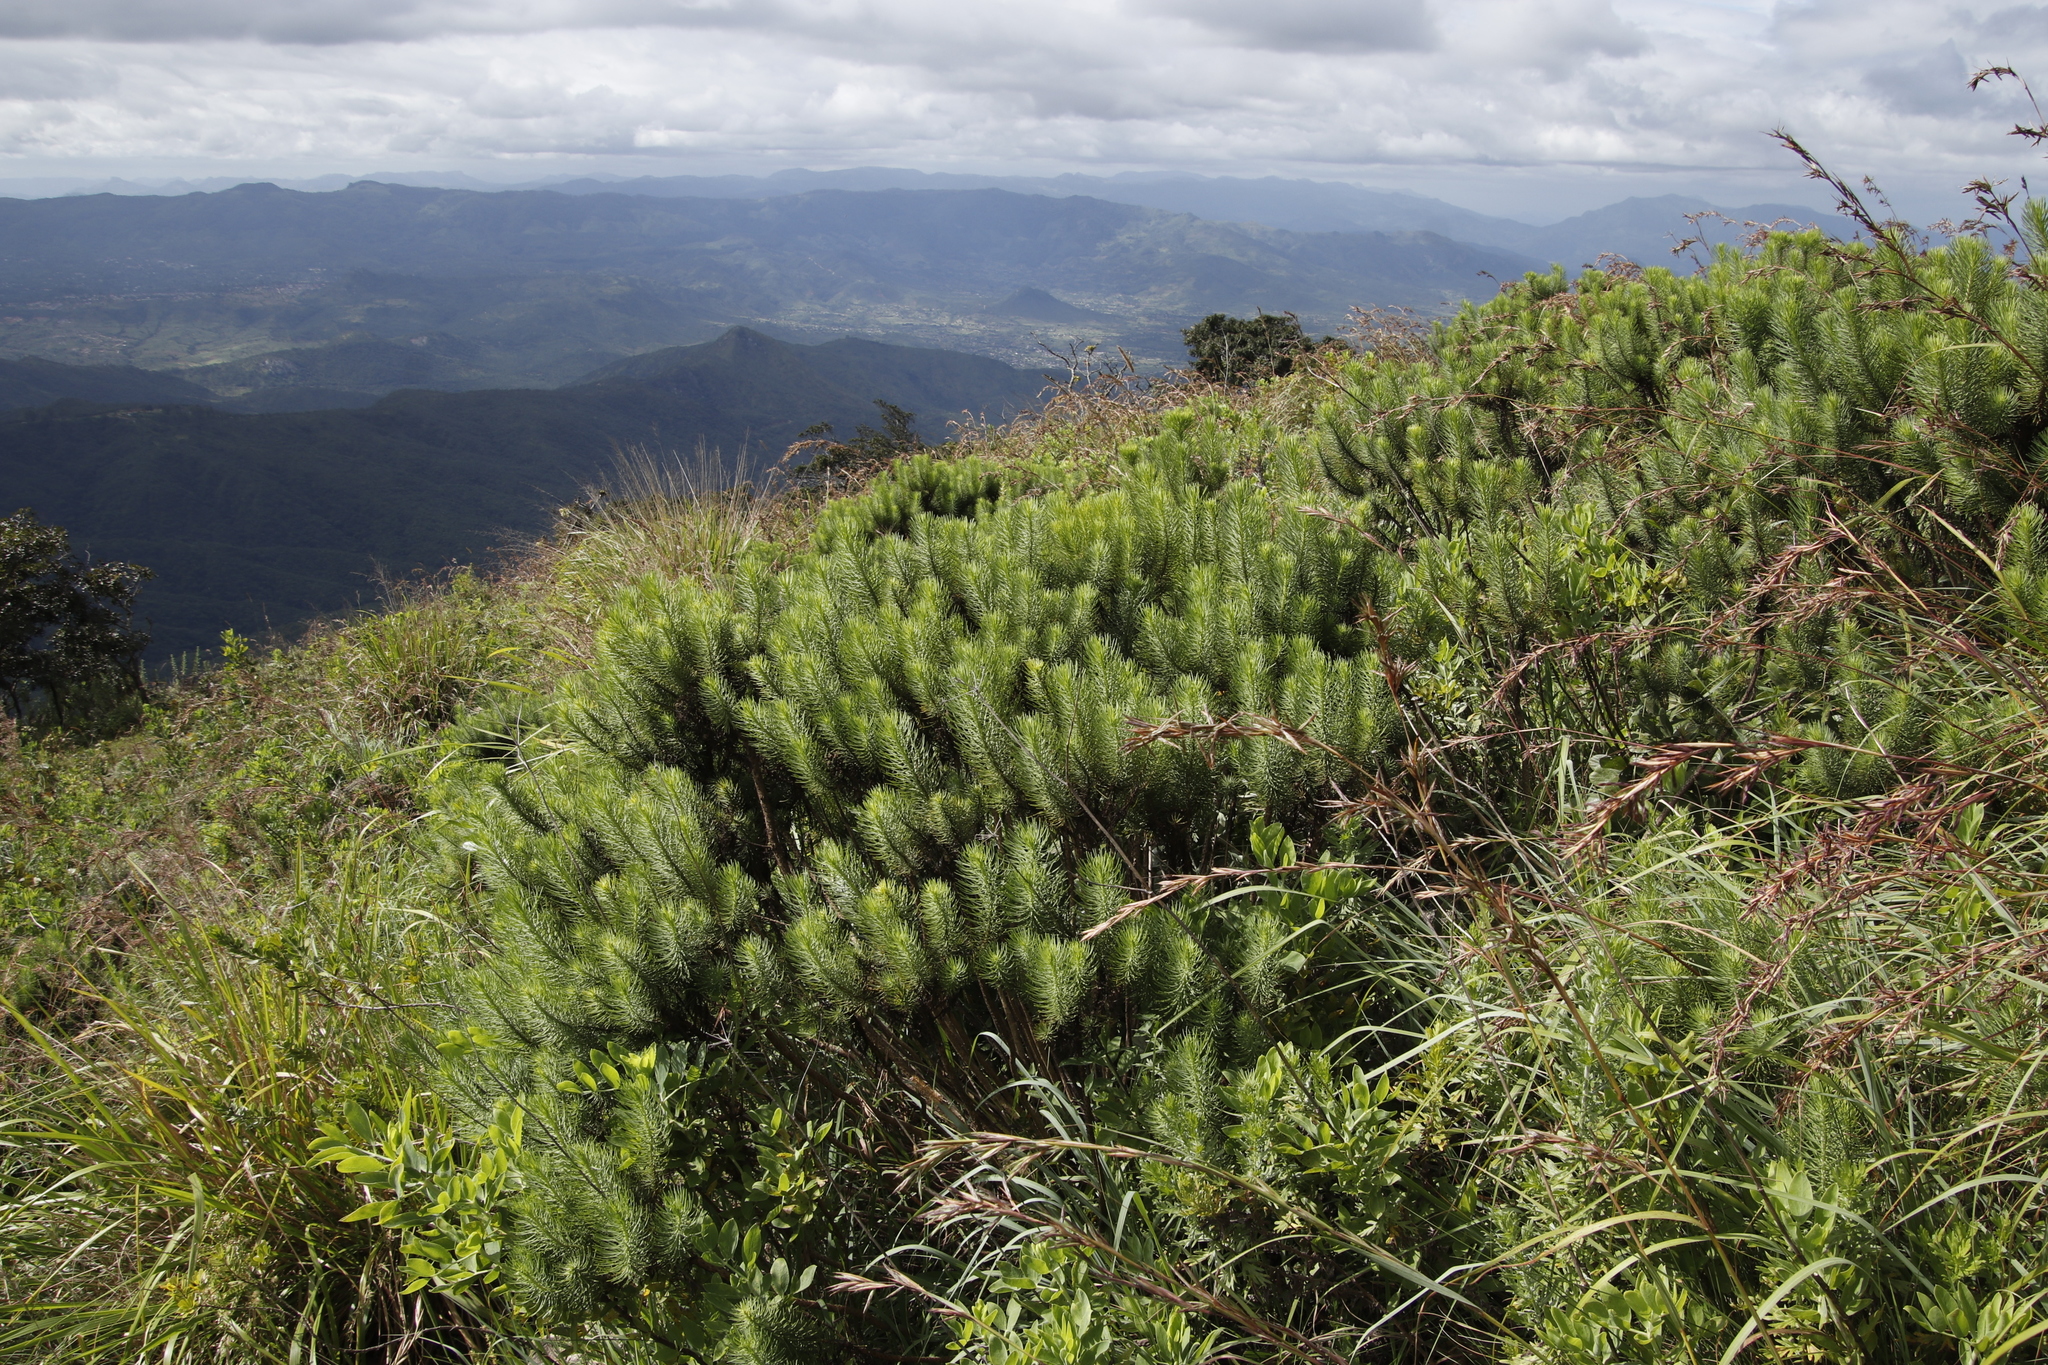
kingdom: Plantae
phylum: Tracheophyta
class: Magnoliopsida
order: Asterales
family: Asteraceae
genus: Phymaspermum
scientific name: Phymaspermum athanasioides
